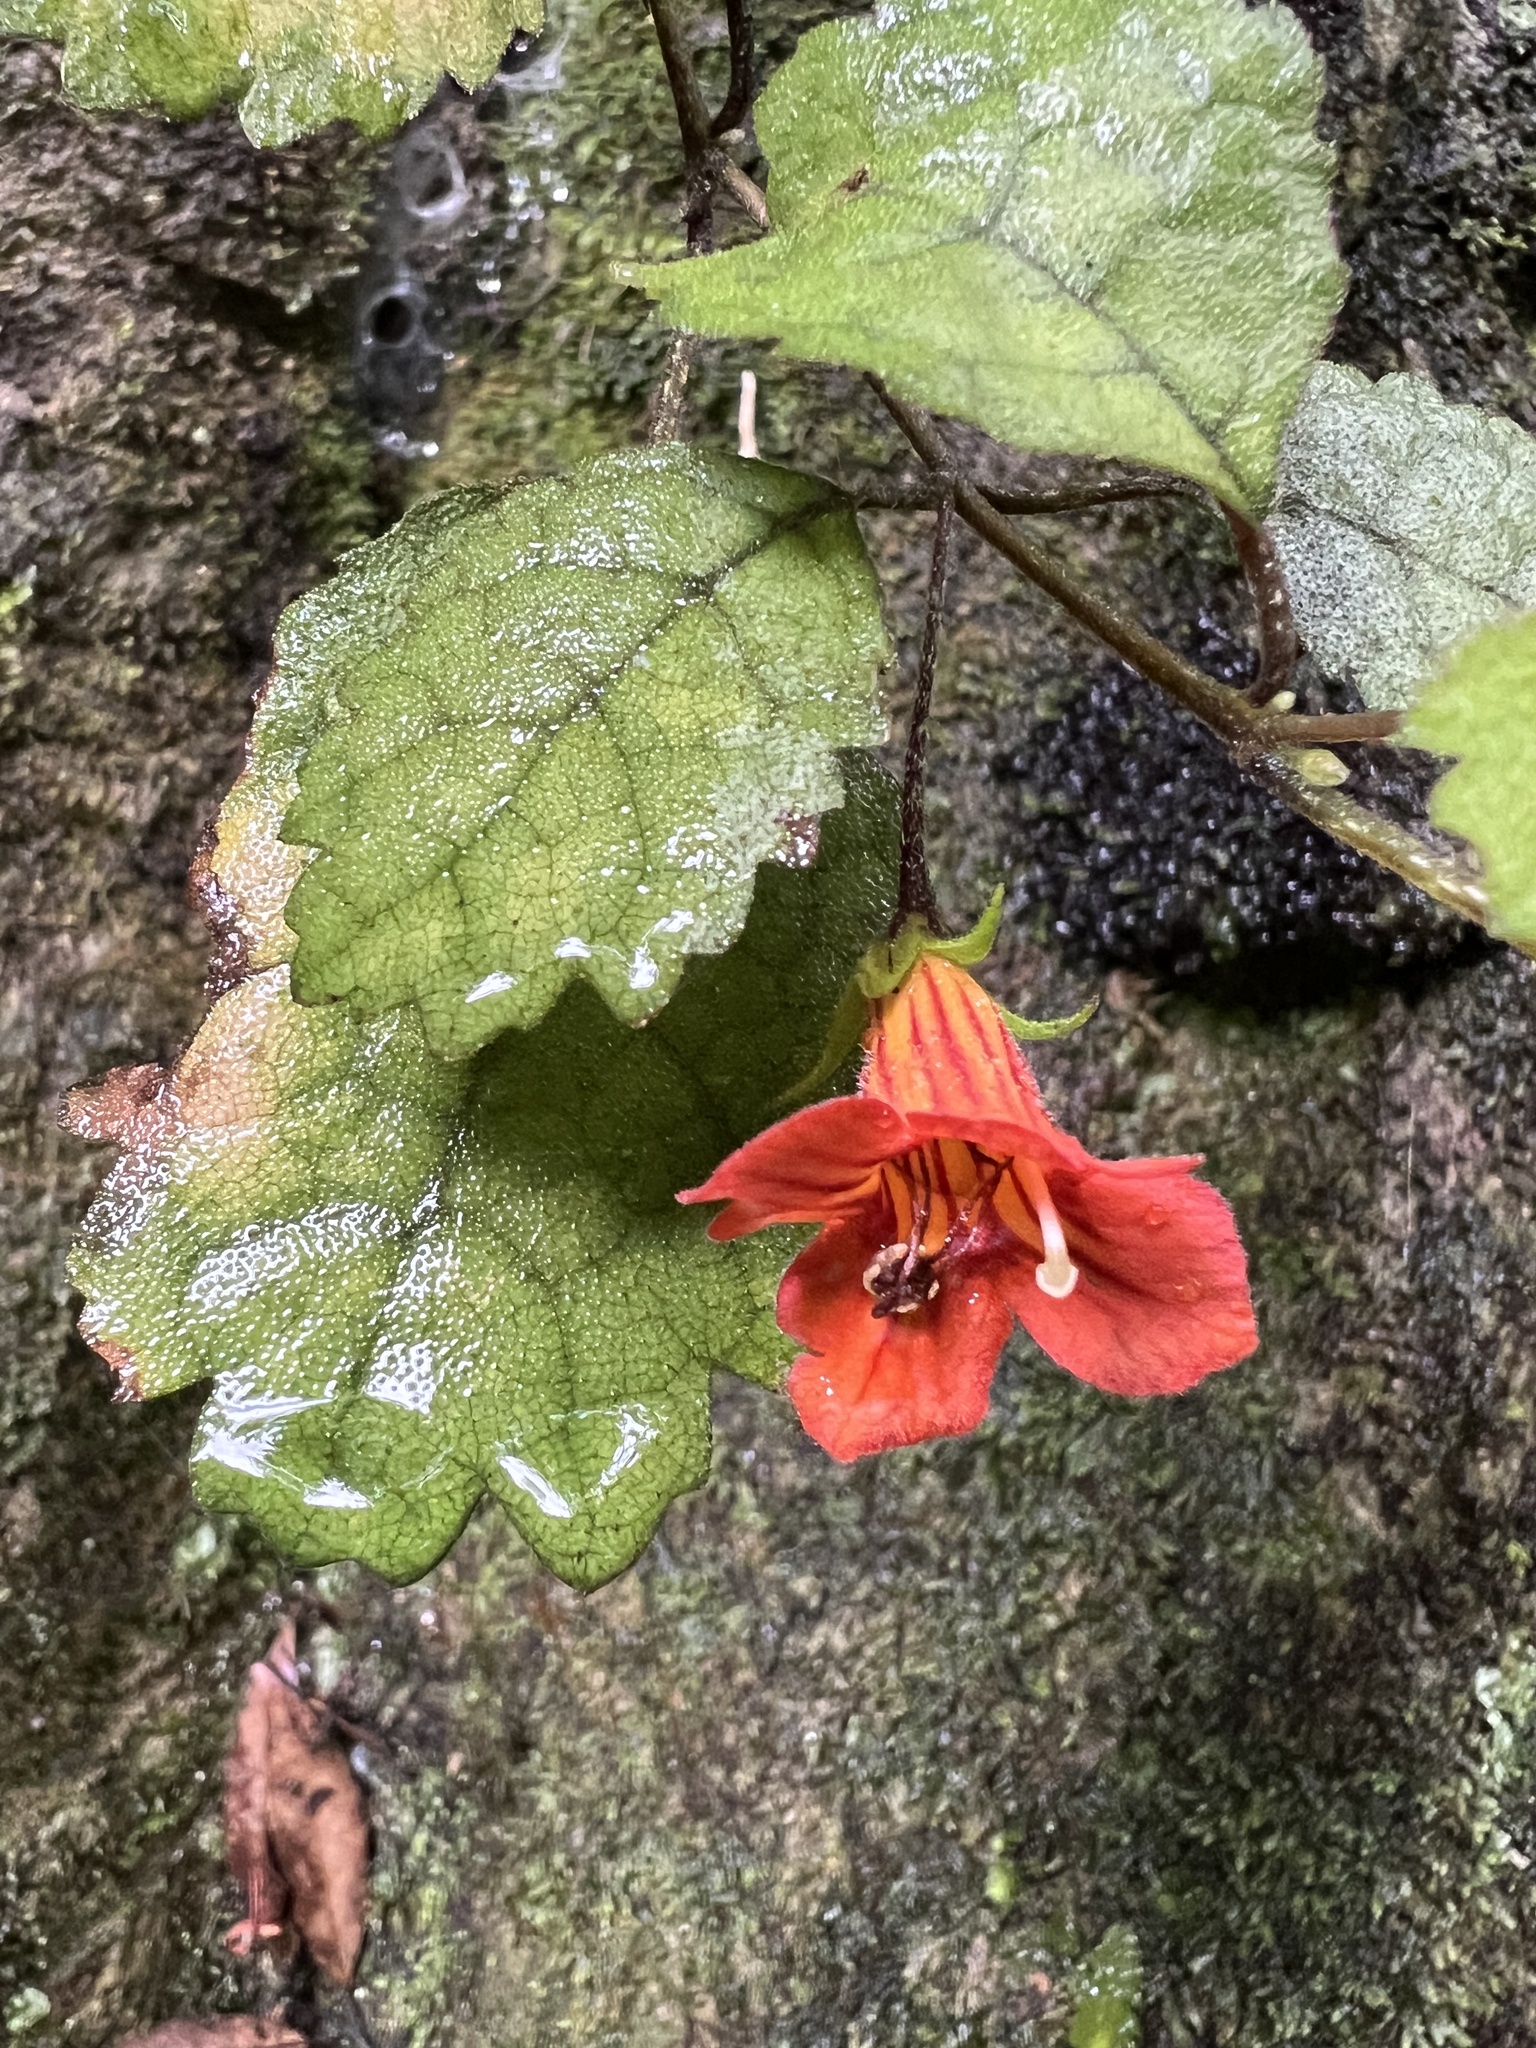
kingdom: Plantae
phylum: Tracheophyta
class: Magnoliopsida
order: Lamiales
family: Gesneriaceae
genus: Rhabdothamnus
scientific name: Rhabdothamnus solandri
